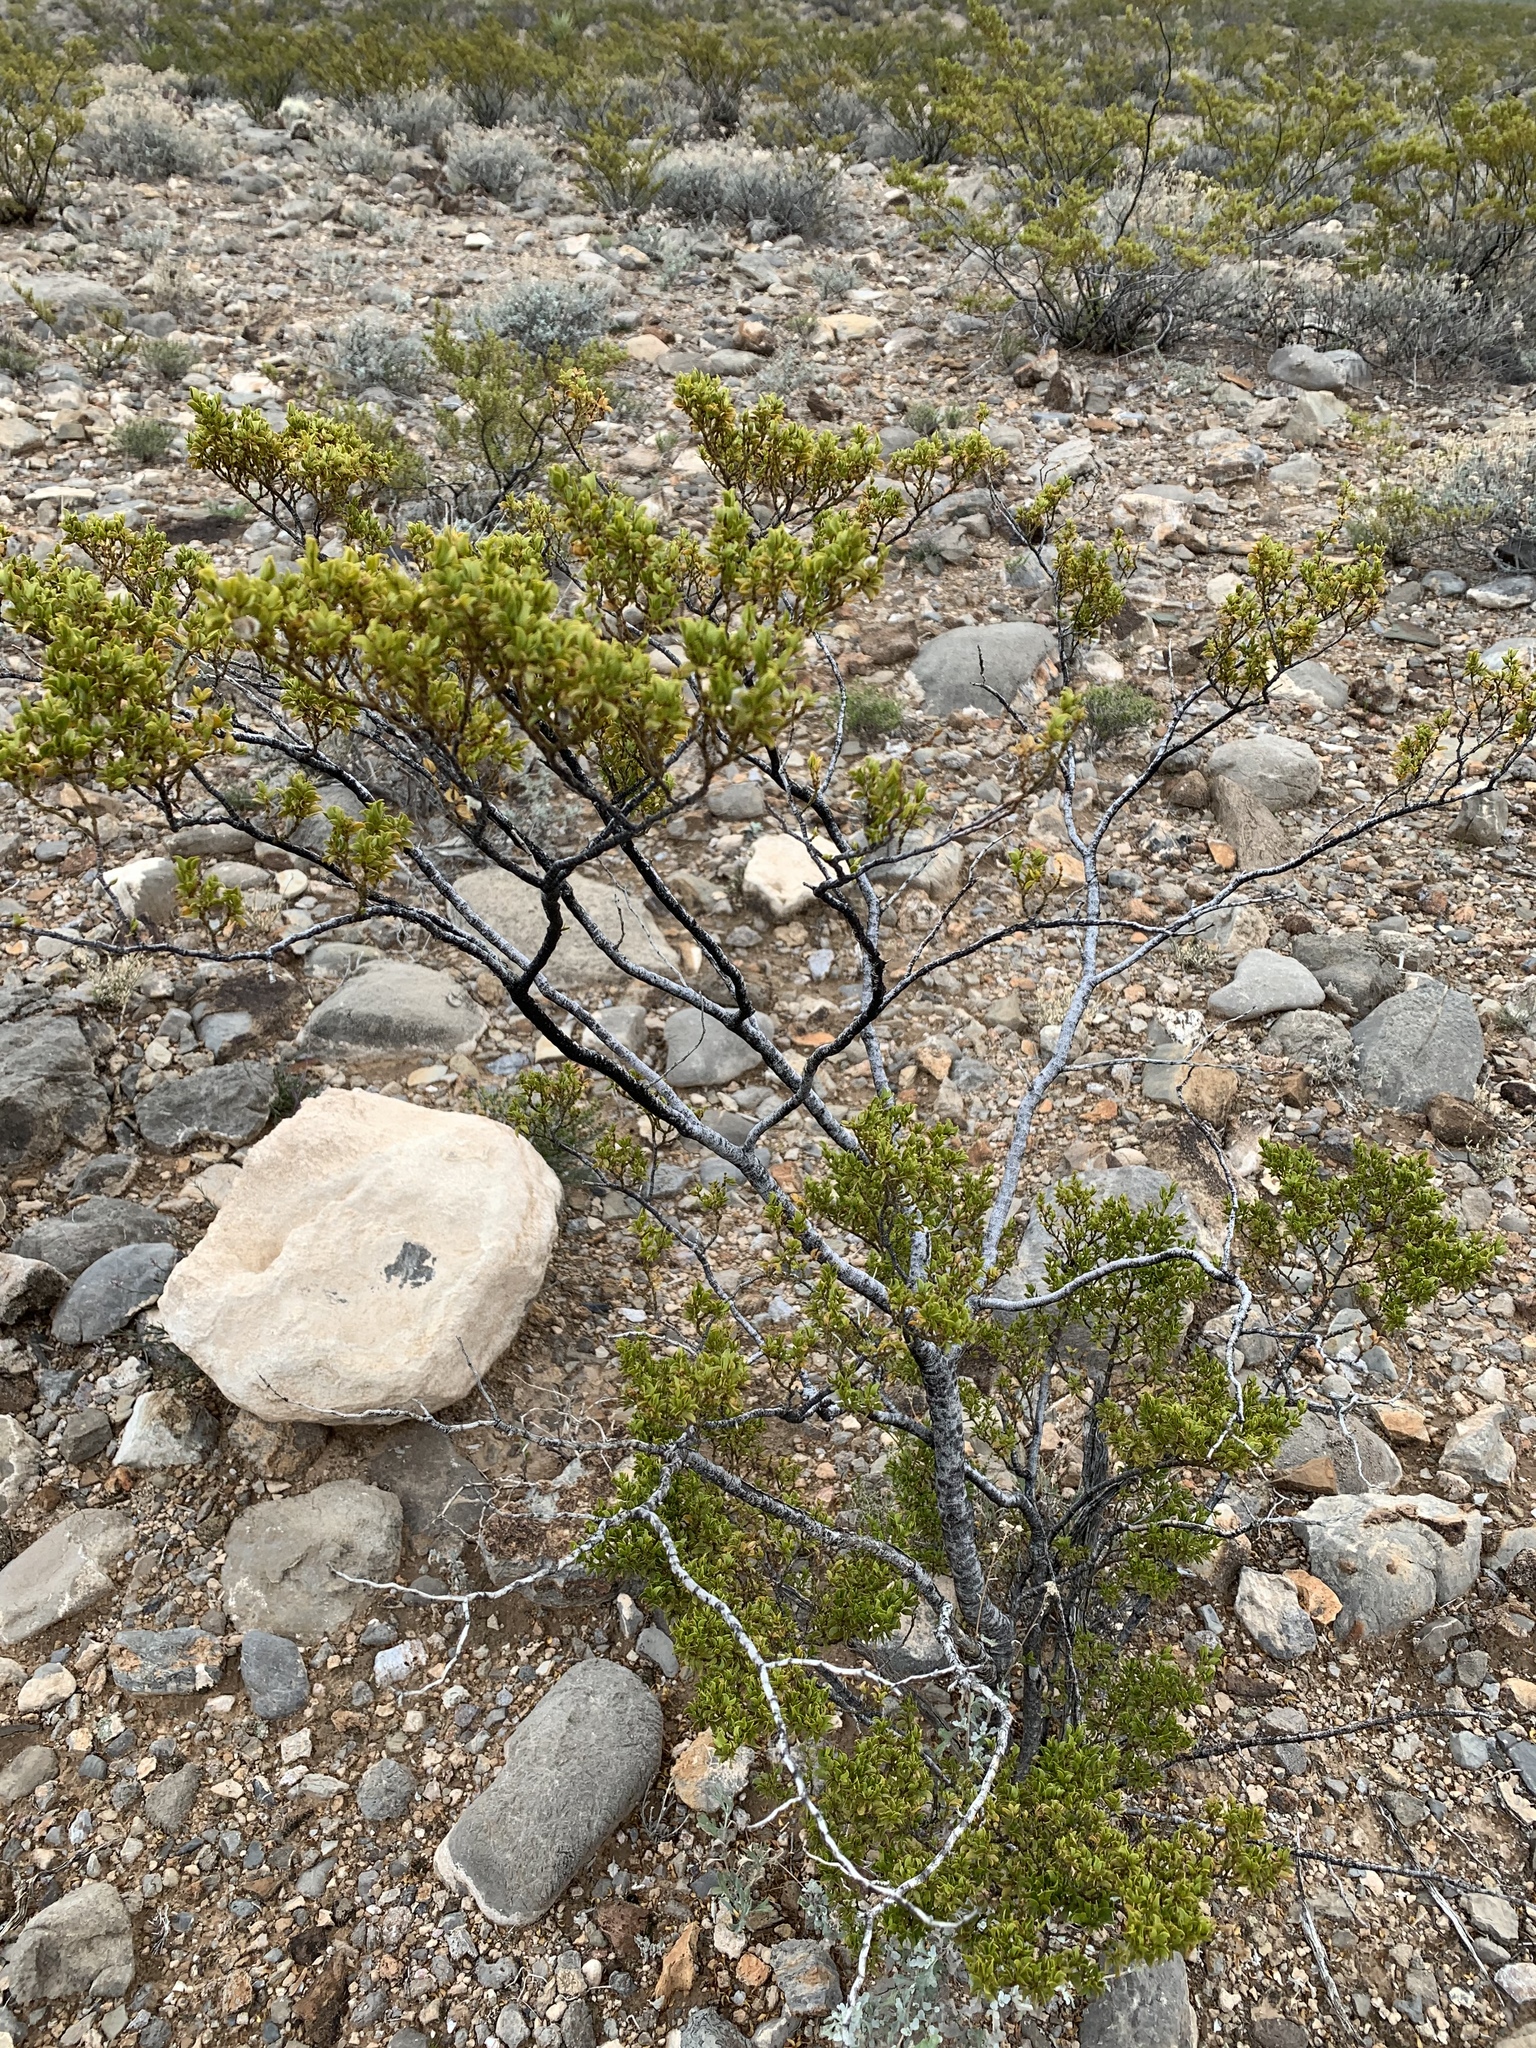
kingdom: Plantae
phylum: Tracheophyta
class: Magnoliopsida
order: Zygophyllales
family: Zygophyllaceae
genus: Larrea
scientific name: Larrea tridentata
